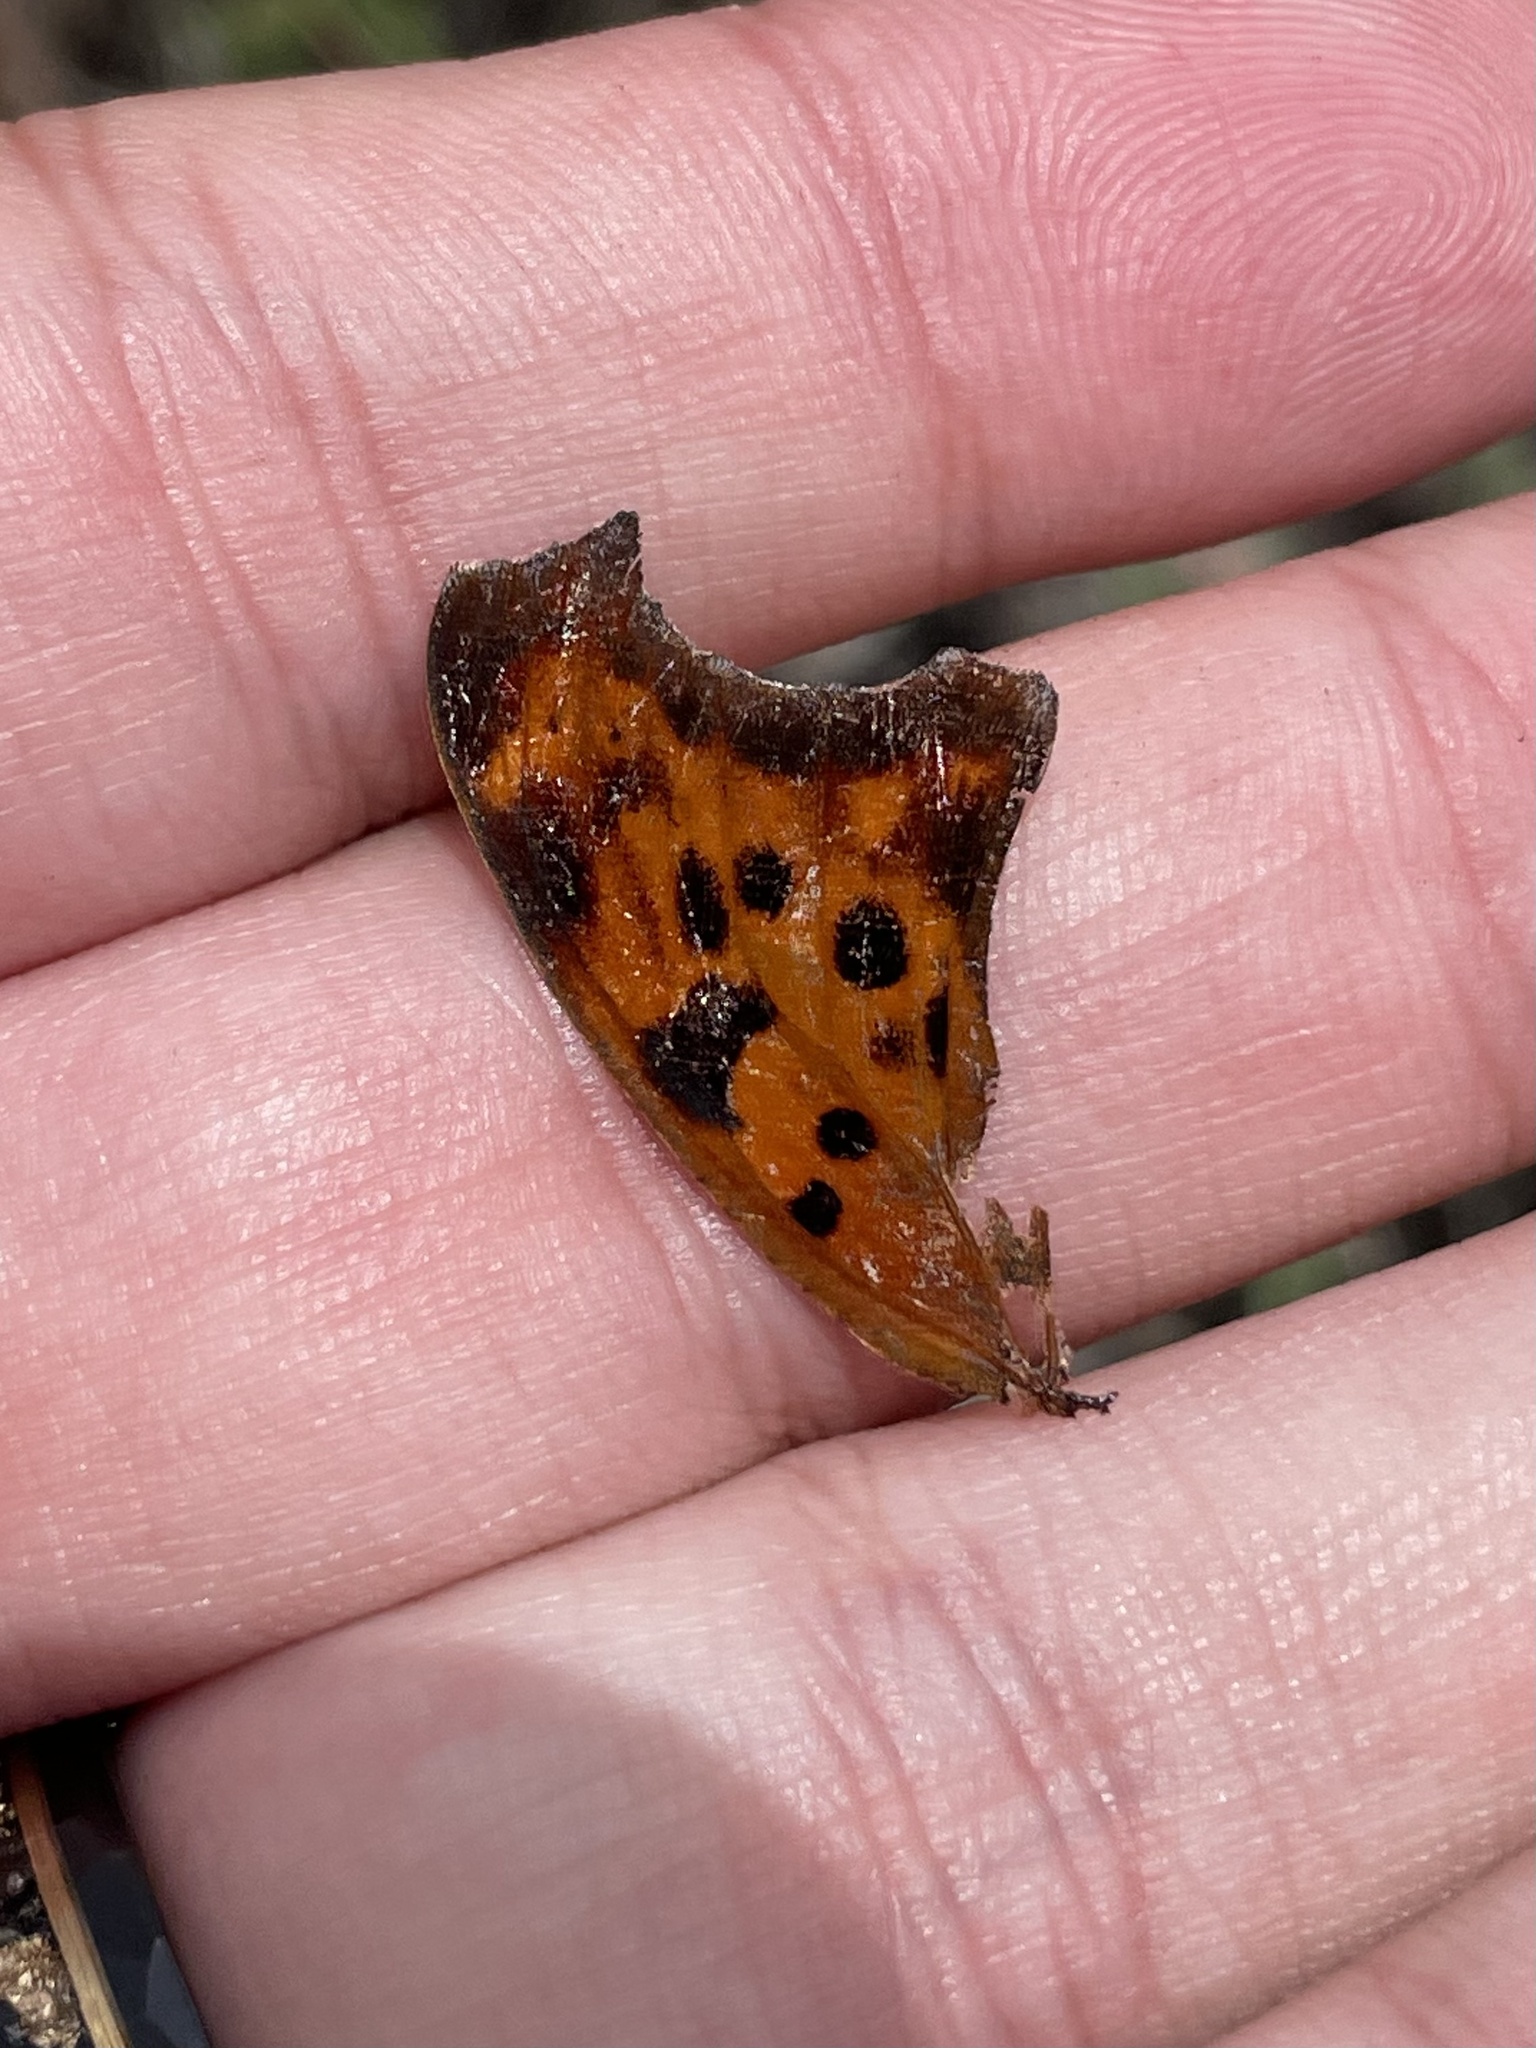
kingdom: Animalia
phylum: Arthropoda
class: Insecta
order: Lepidoptera
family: Nymphalidae
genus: Polygonia
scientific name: Polygonia interrogationis
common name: Question mark
